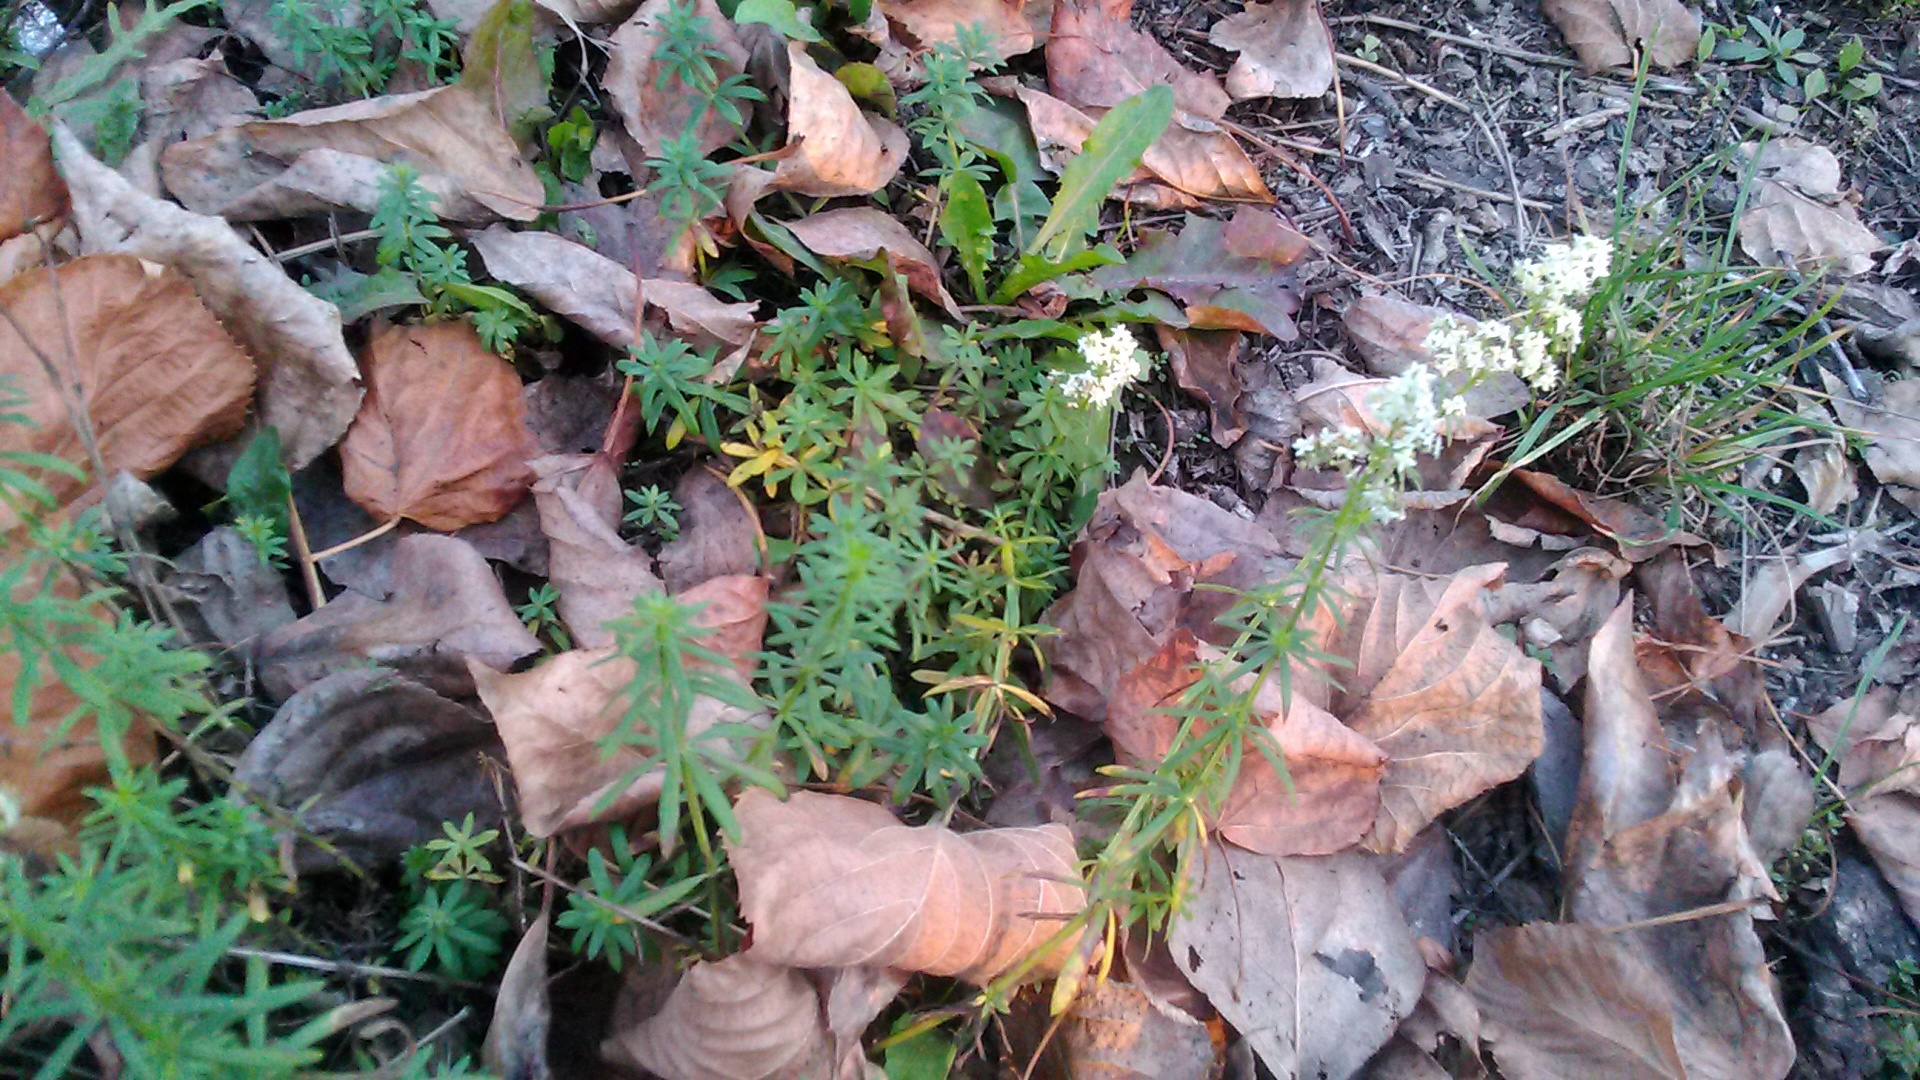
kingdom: Plantae
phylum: Tracheophyta
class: Magnoliopsida
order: Gentianales
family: Rubiaceae
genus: Galium
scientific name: Galium mollugo
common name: Hedge bedstraw
